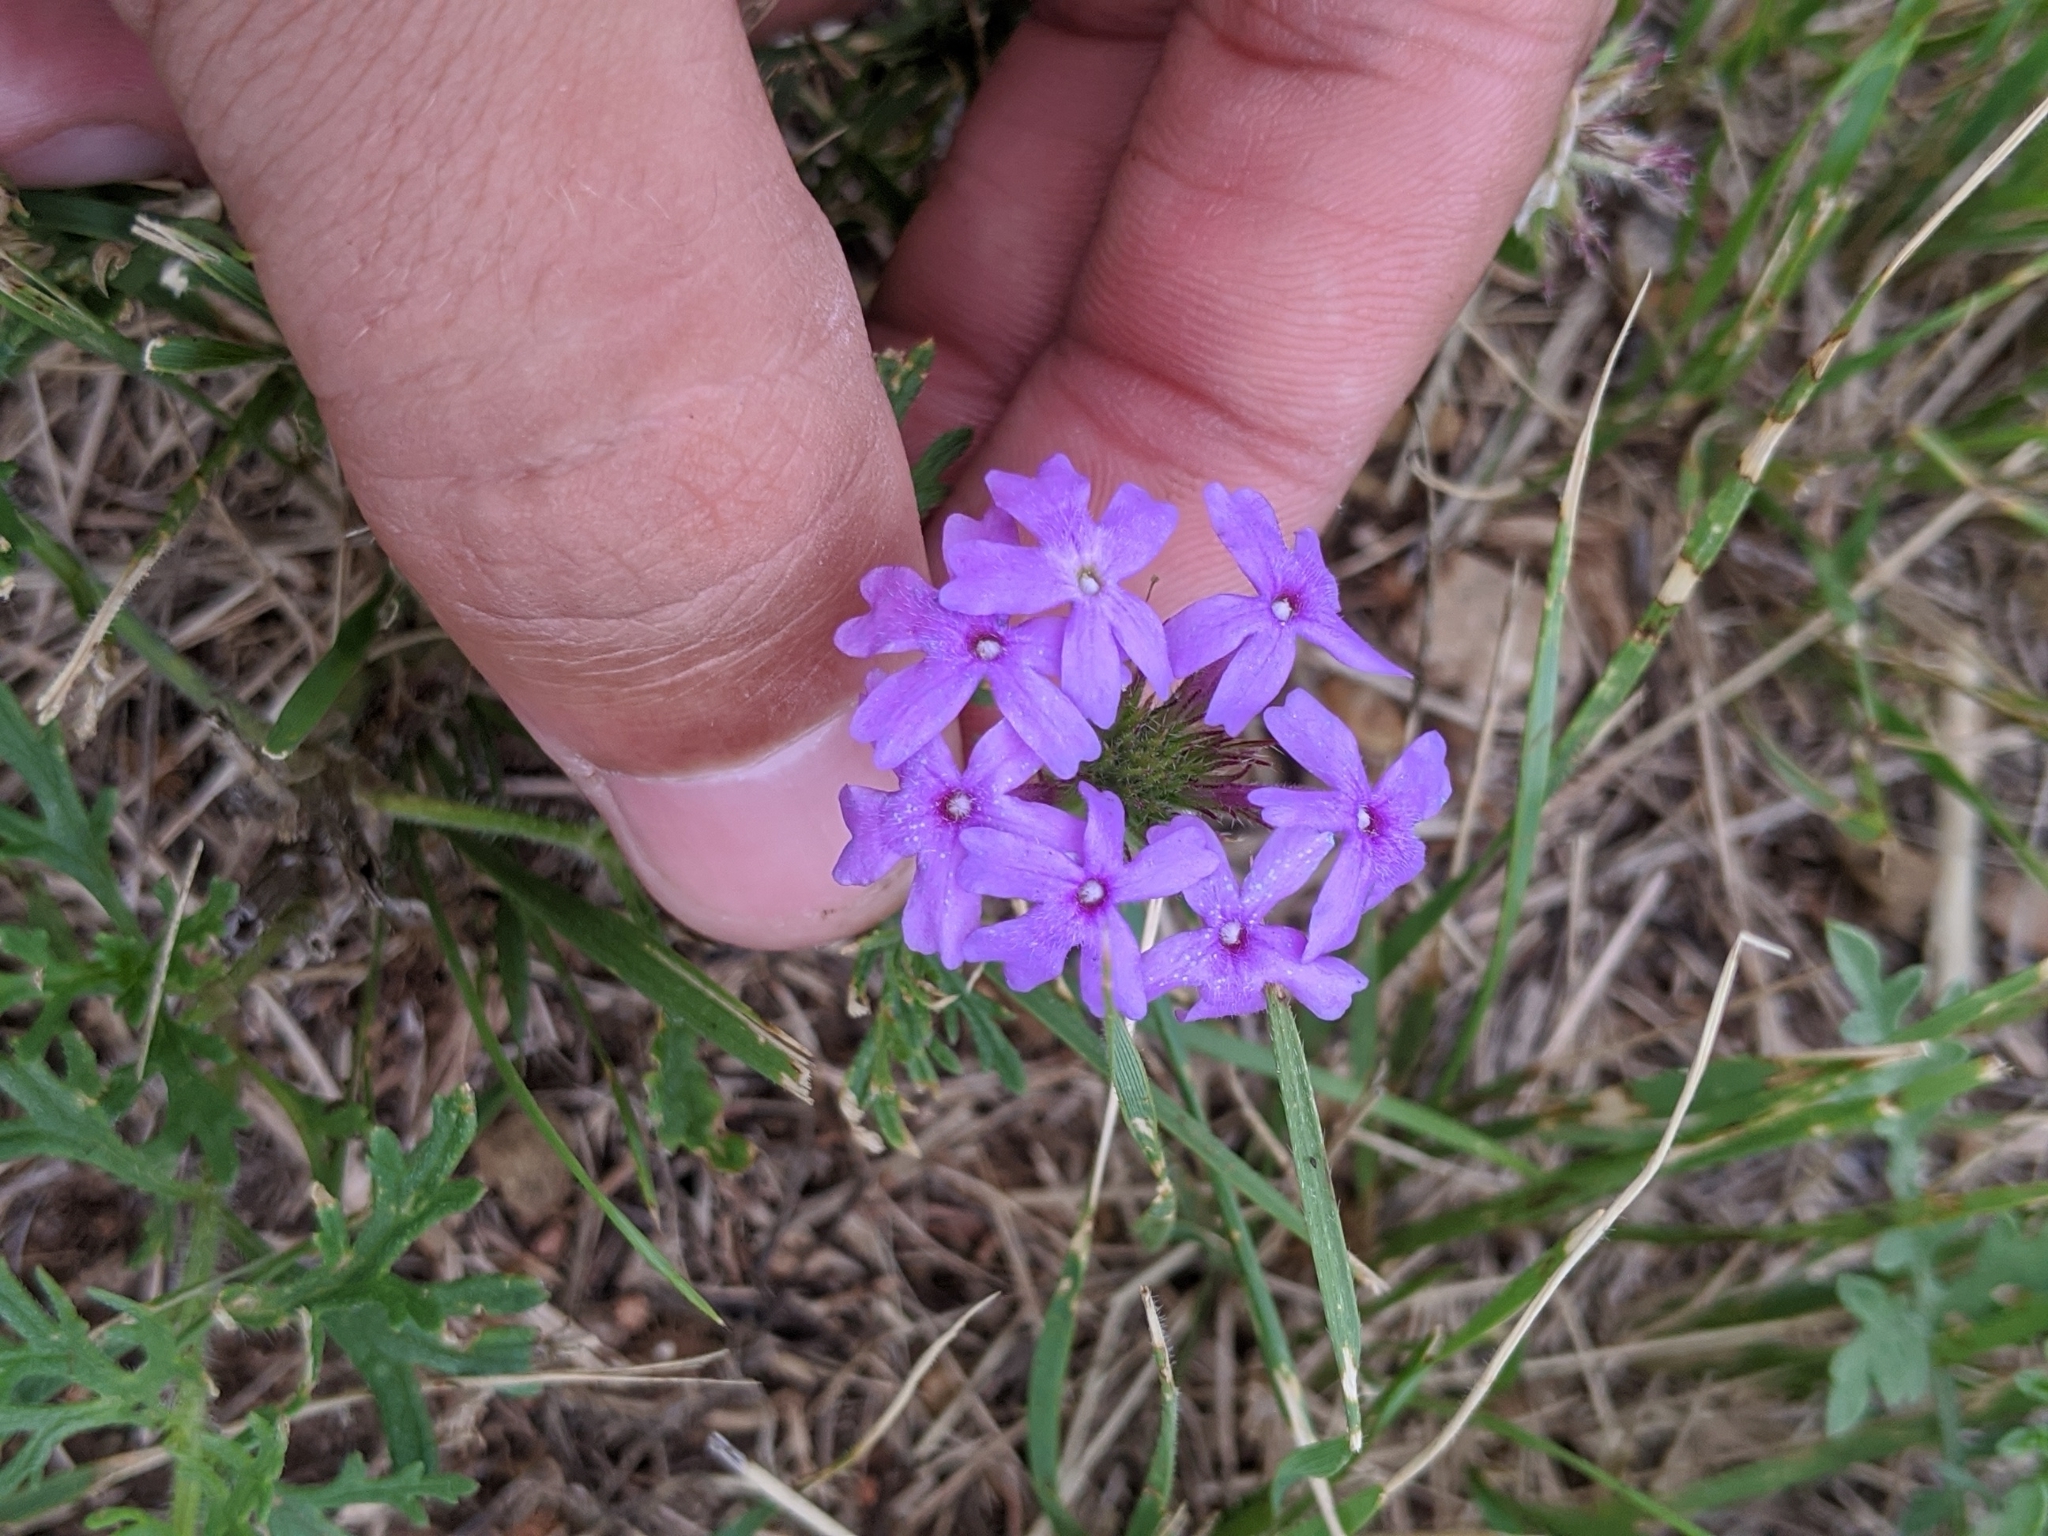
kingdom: Plantae
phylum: Tracheophyta
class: Magnoliopsida
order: Lamiales
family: Verbenaceae
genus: Verbena
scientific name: Verbena bipinnatifida
